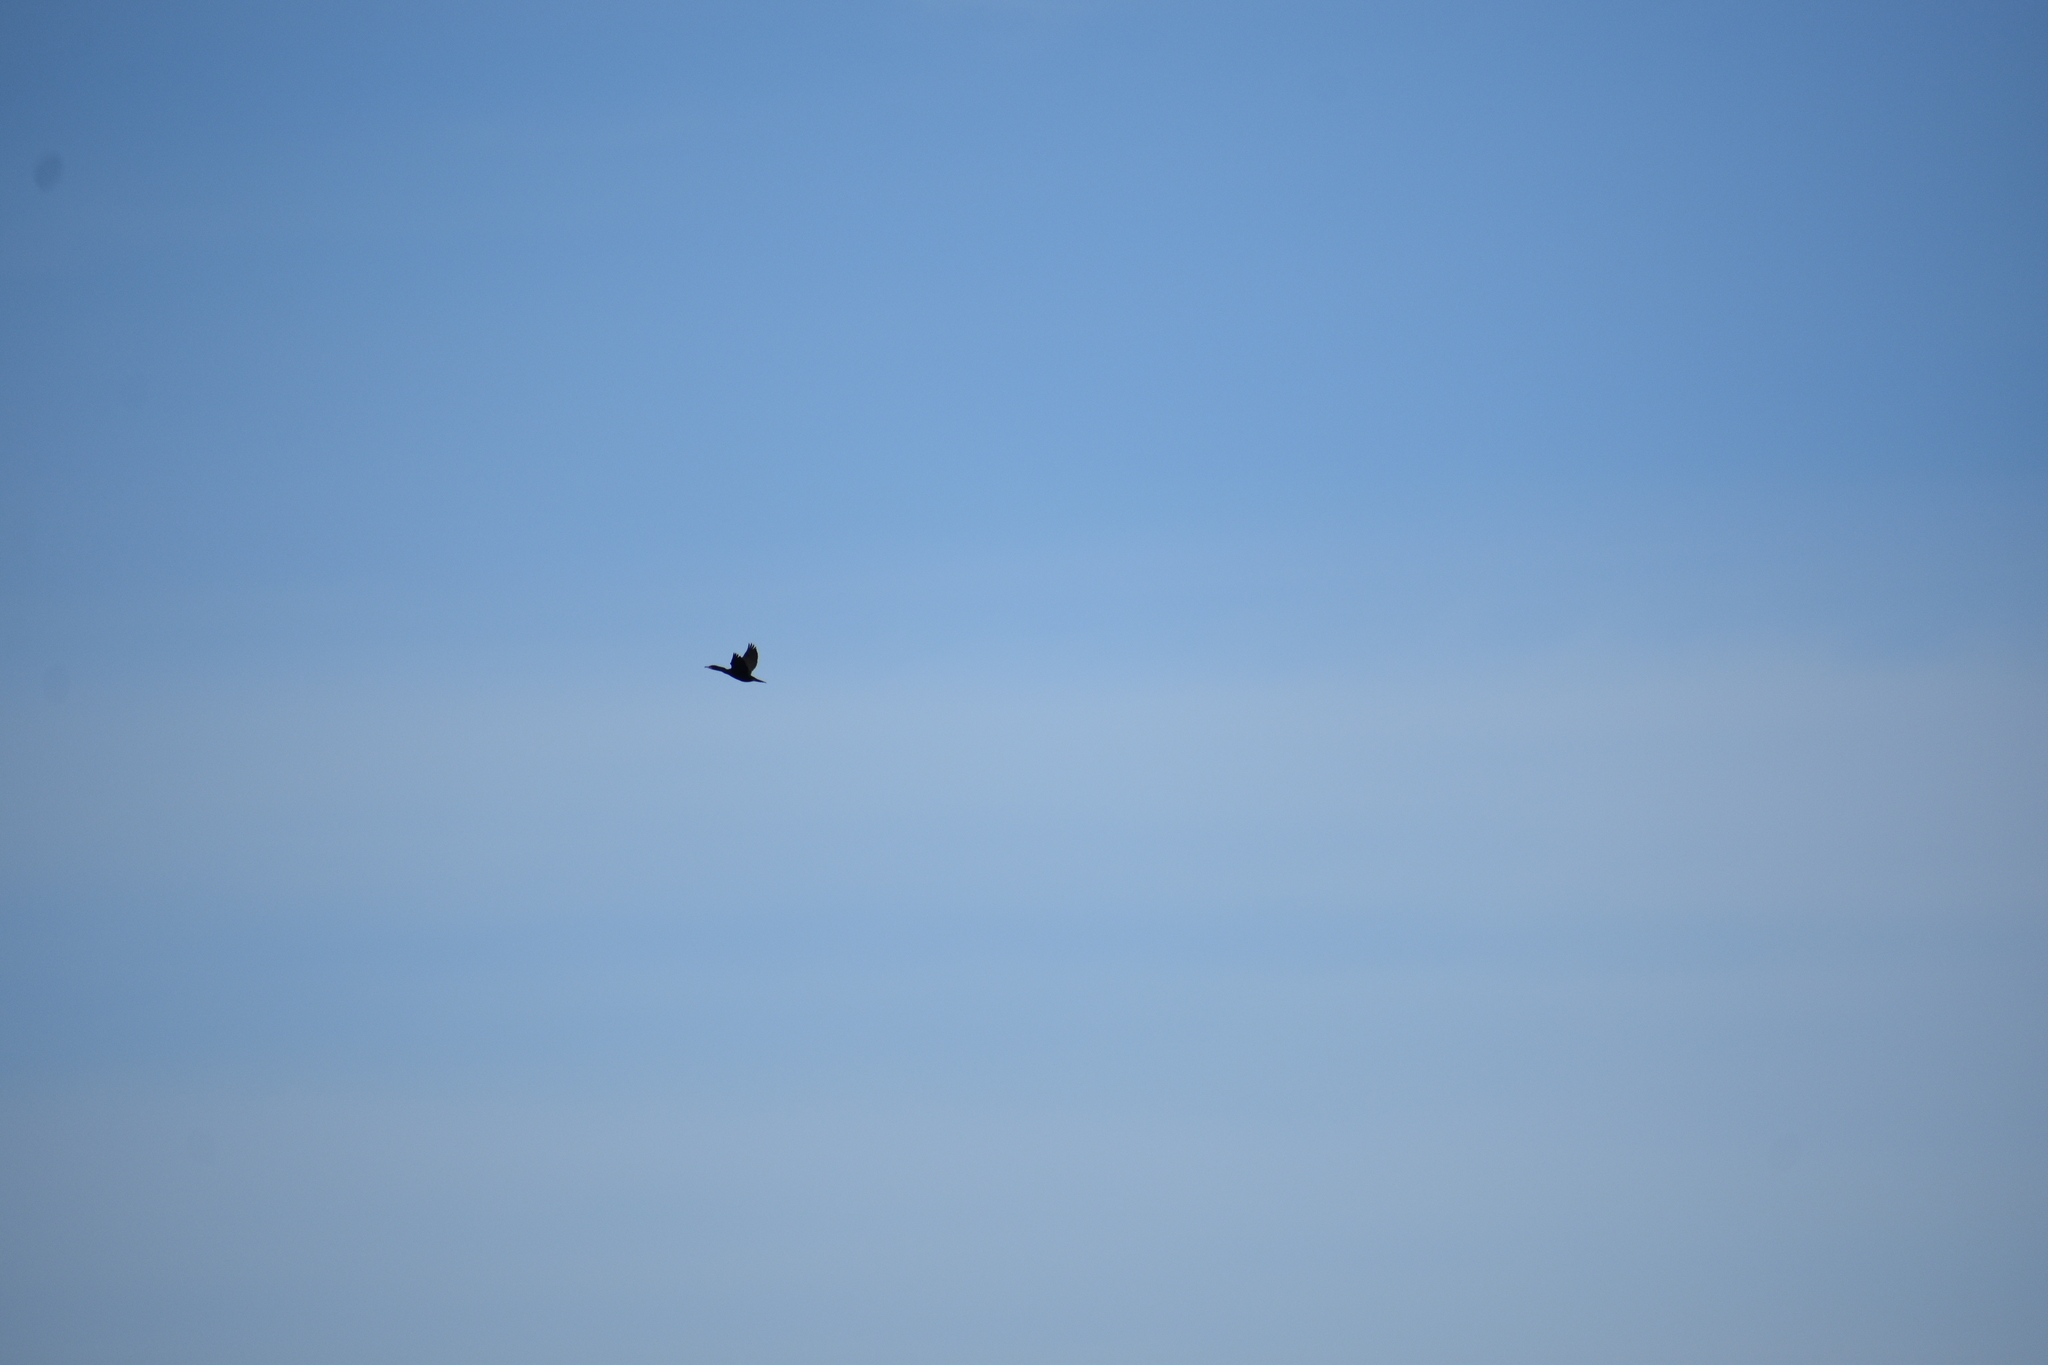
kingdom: Animalia
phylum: Chordata
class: Aves
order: Suliformes
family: Phalacrocoracidae
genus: Phalacrocorax
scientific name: Phalacrocorax auritus
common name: Double-crested cormorant
